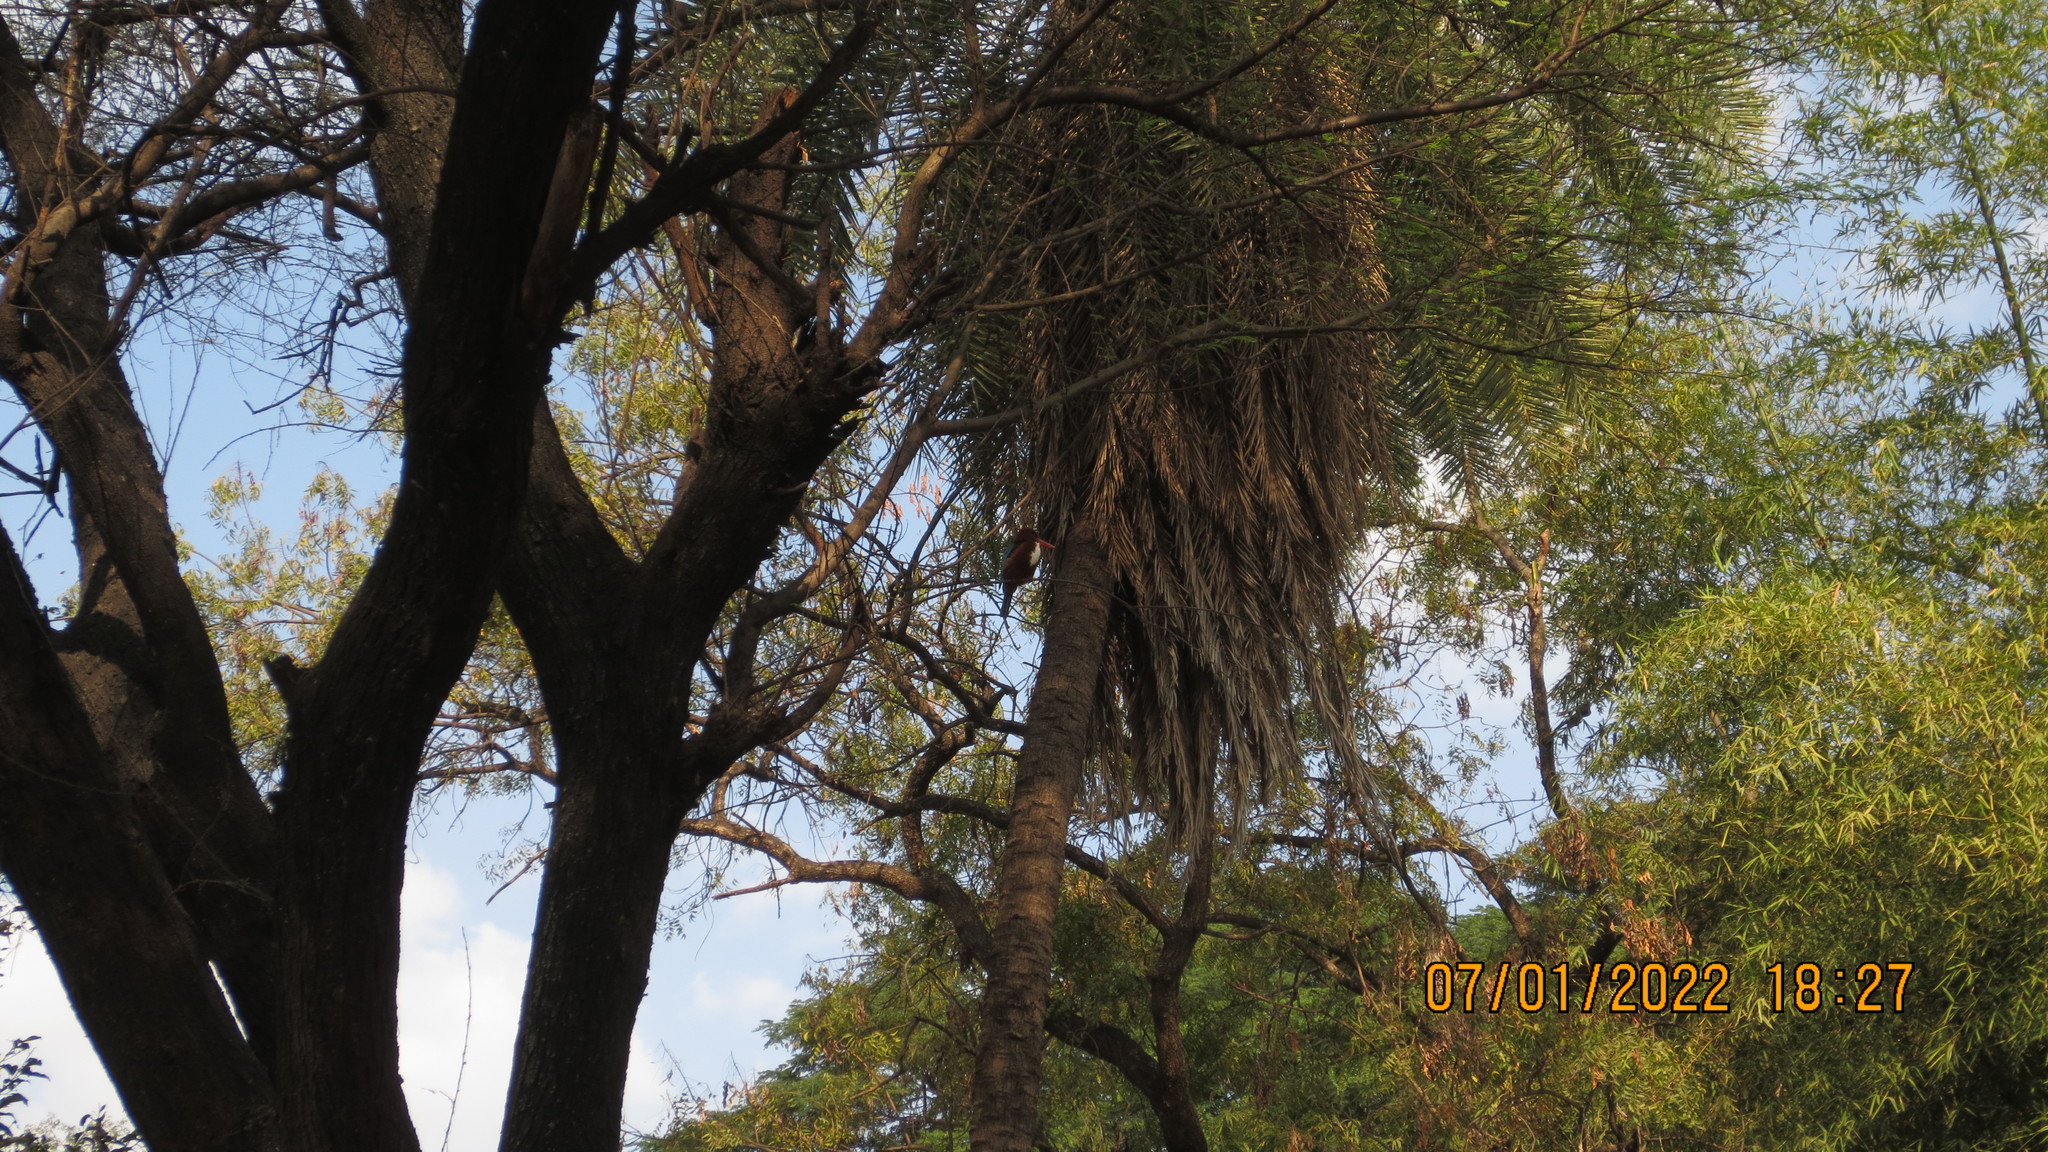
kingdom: Animalia
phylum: Chordata
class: Aves
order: Coraciiformes
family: Alcedinidae
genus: Halcyon
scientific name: Halcyon smyrnensis
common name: White-throated kingfisher
